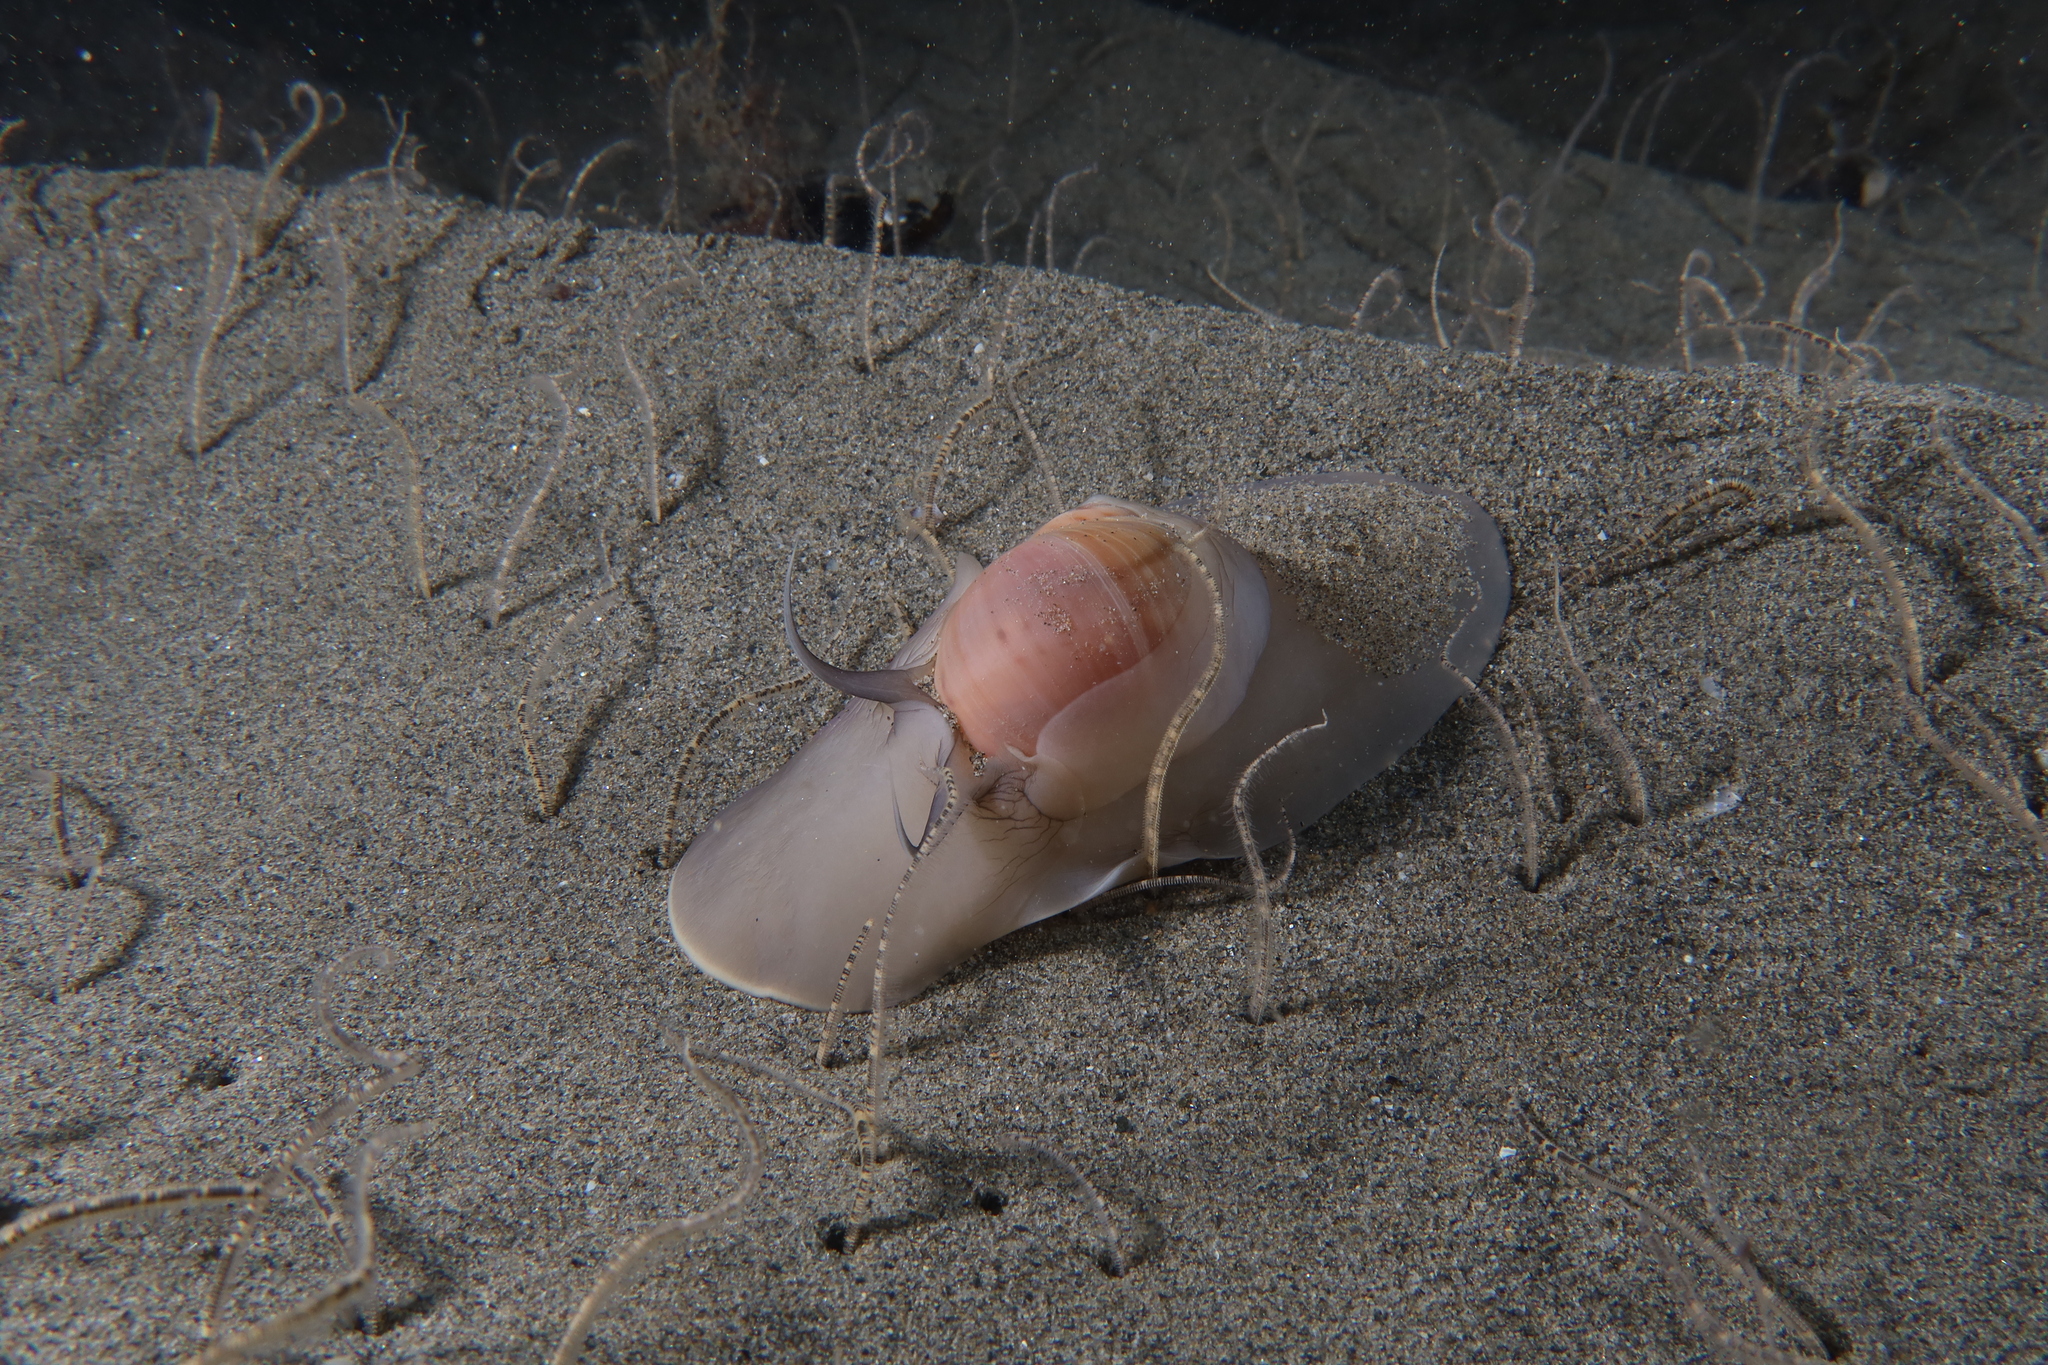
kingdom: Animalia
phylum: Mollusca
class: Gastropoda
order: Littorinimorpha
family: Naticidae
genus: Euspira
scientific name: Euspira catena
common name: Necklace shell
